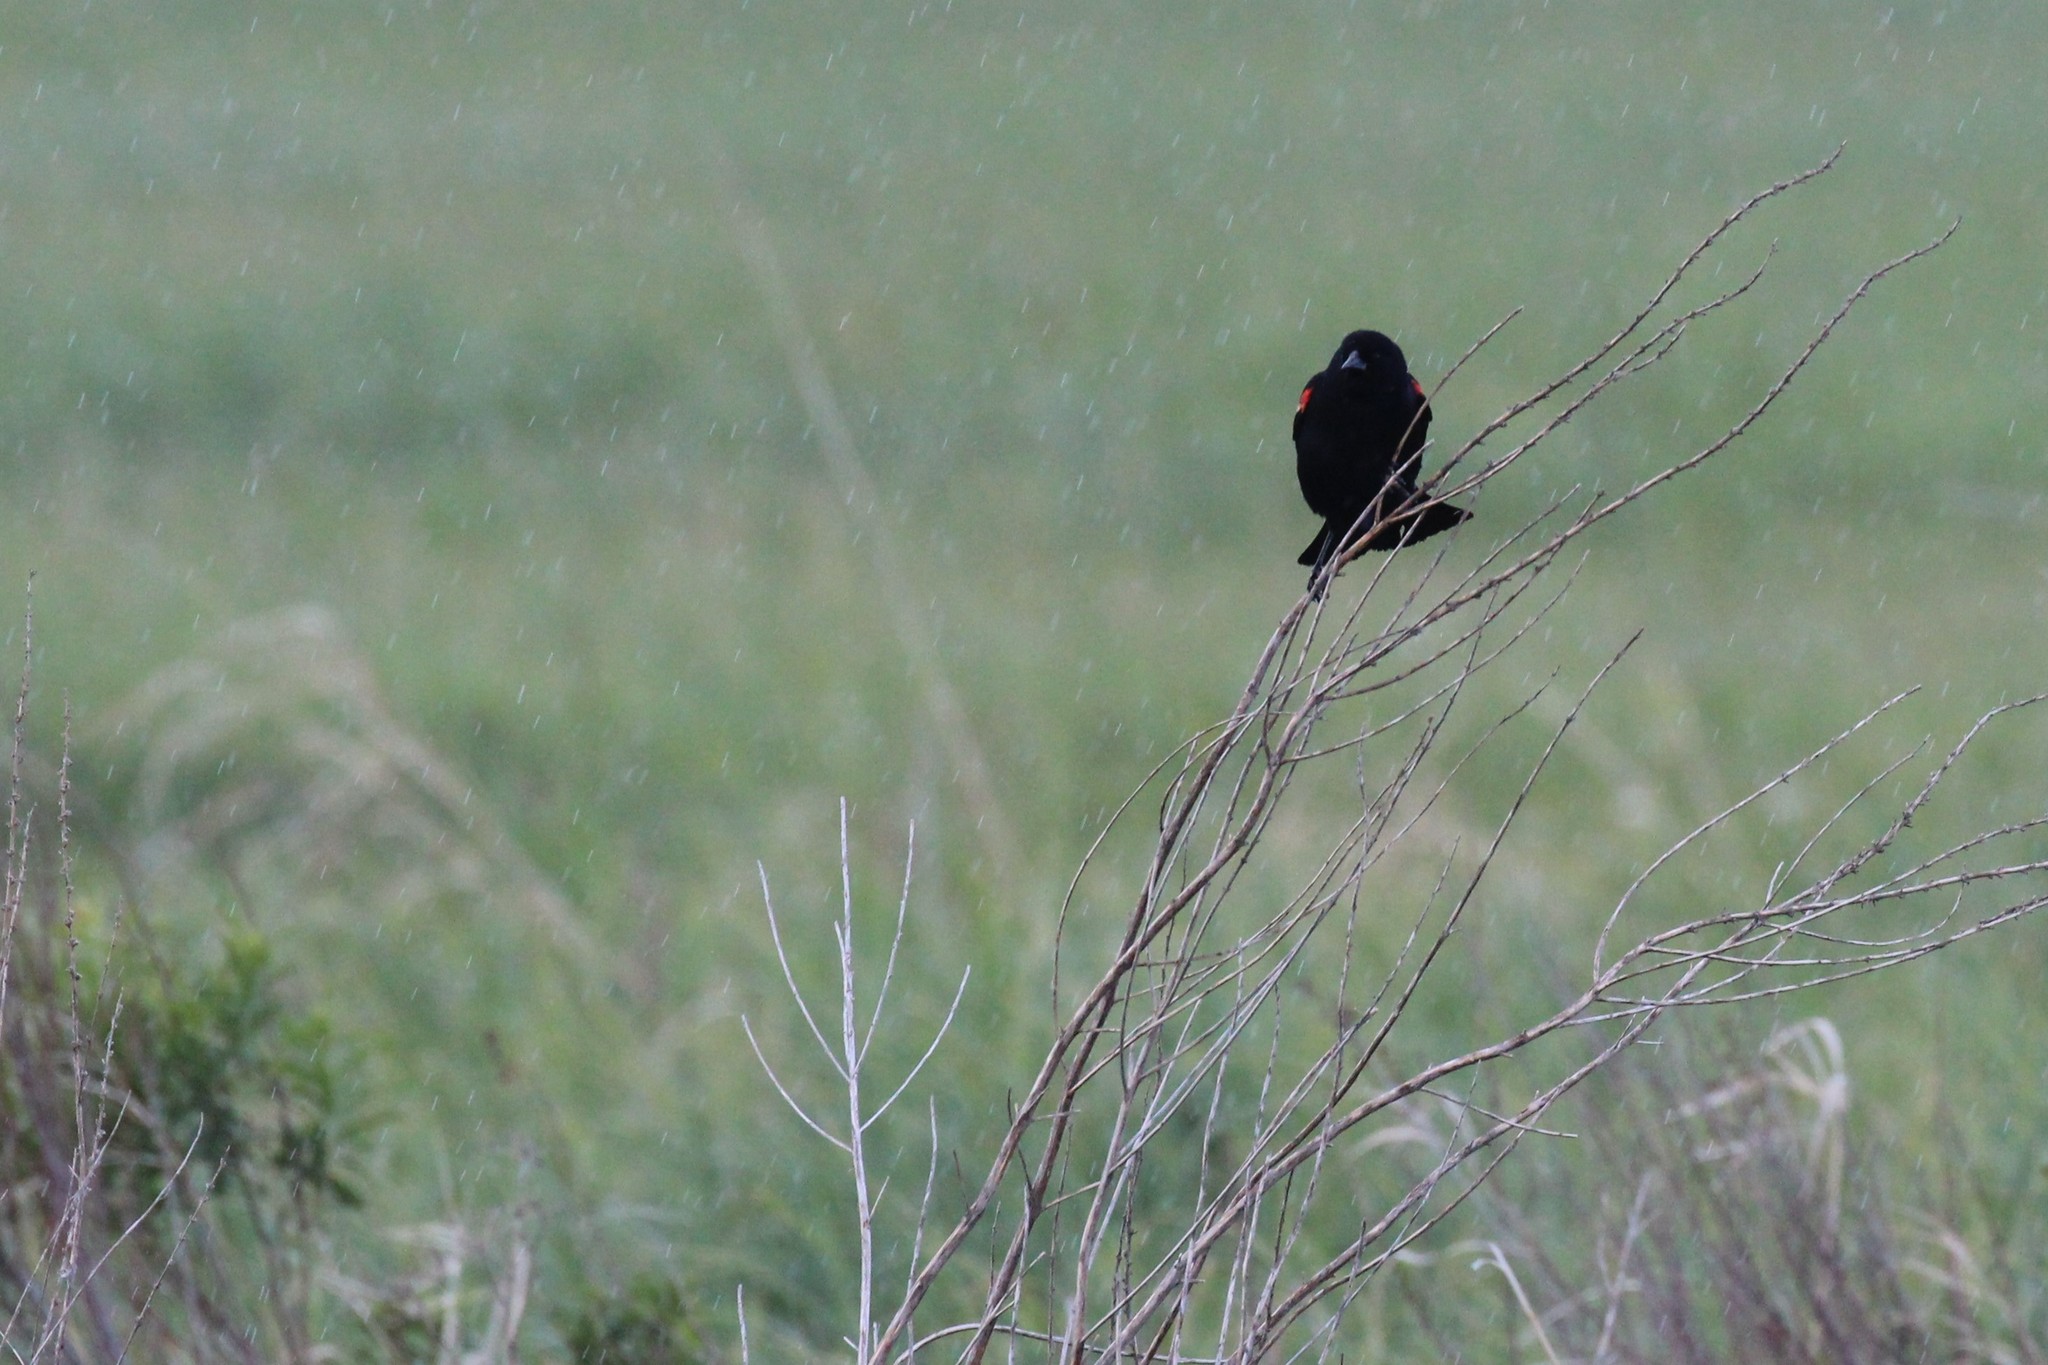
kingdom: Animalia
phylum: Chordata
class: Aves
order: Passeriformes
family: Icteridae
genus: Agelaius
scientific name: Agelaius phoeniceus
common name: Red-winged blackbird
